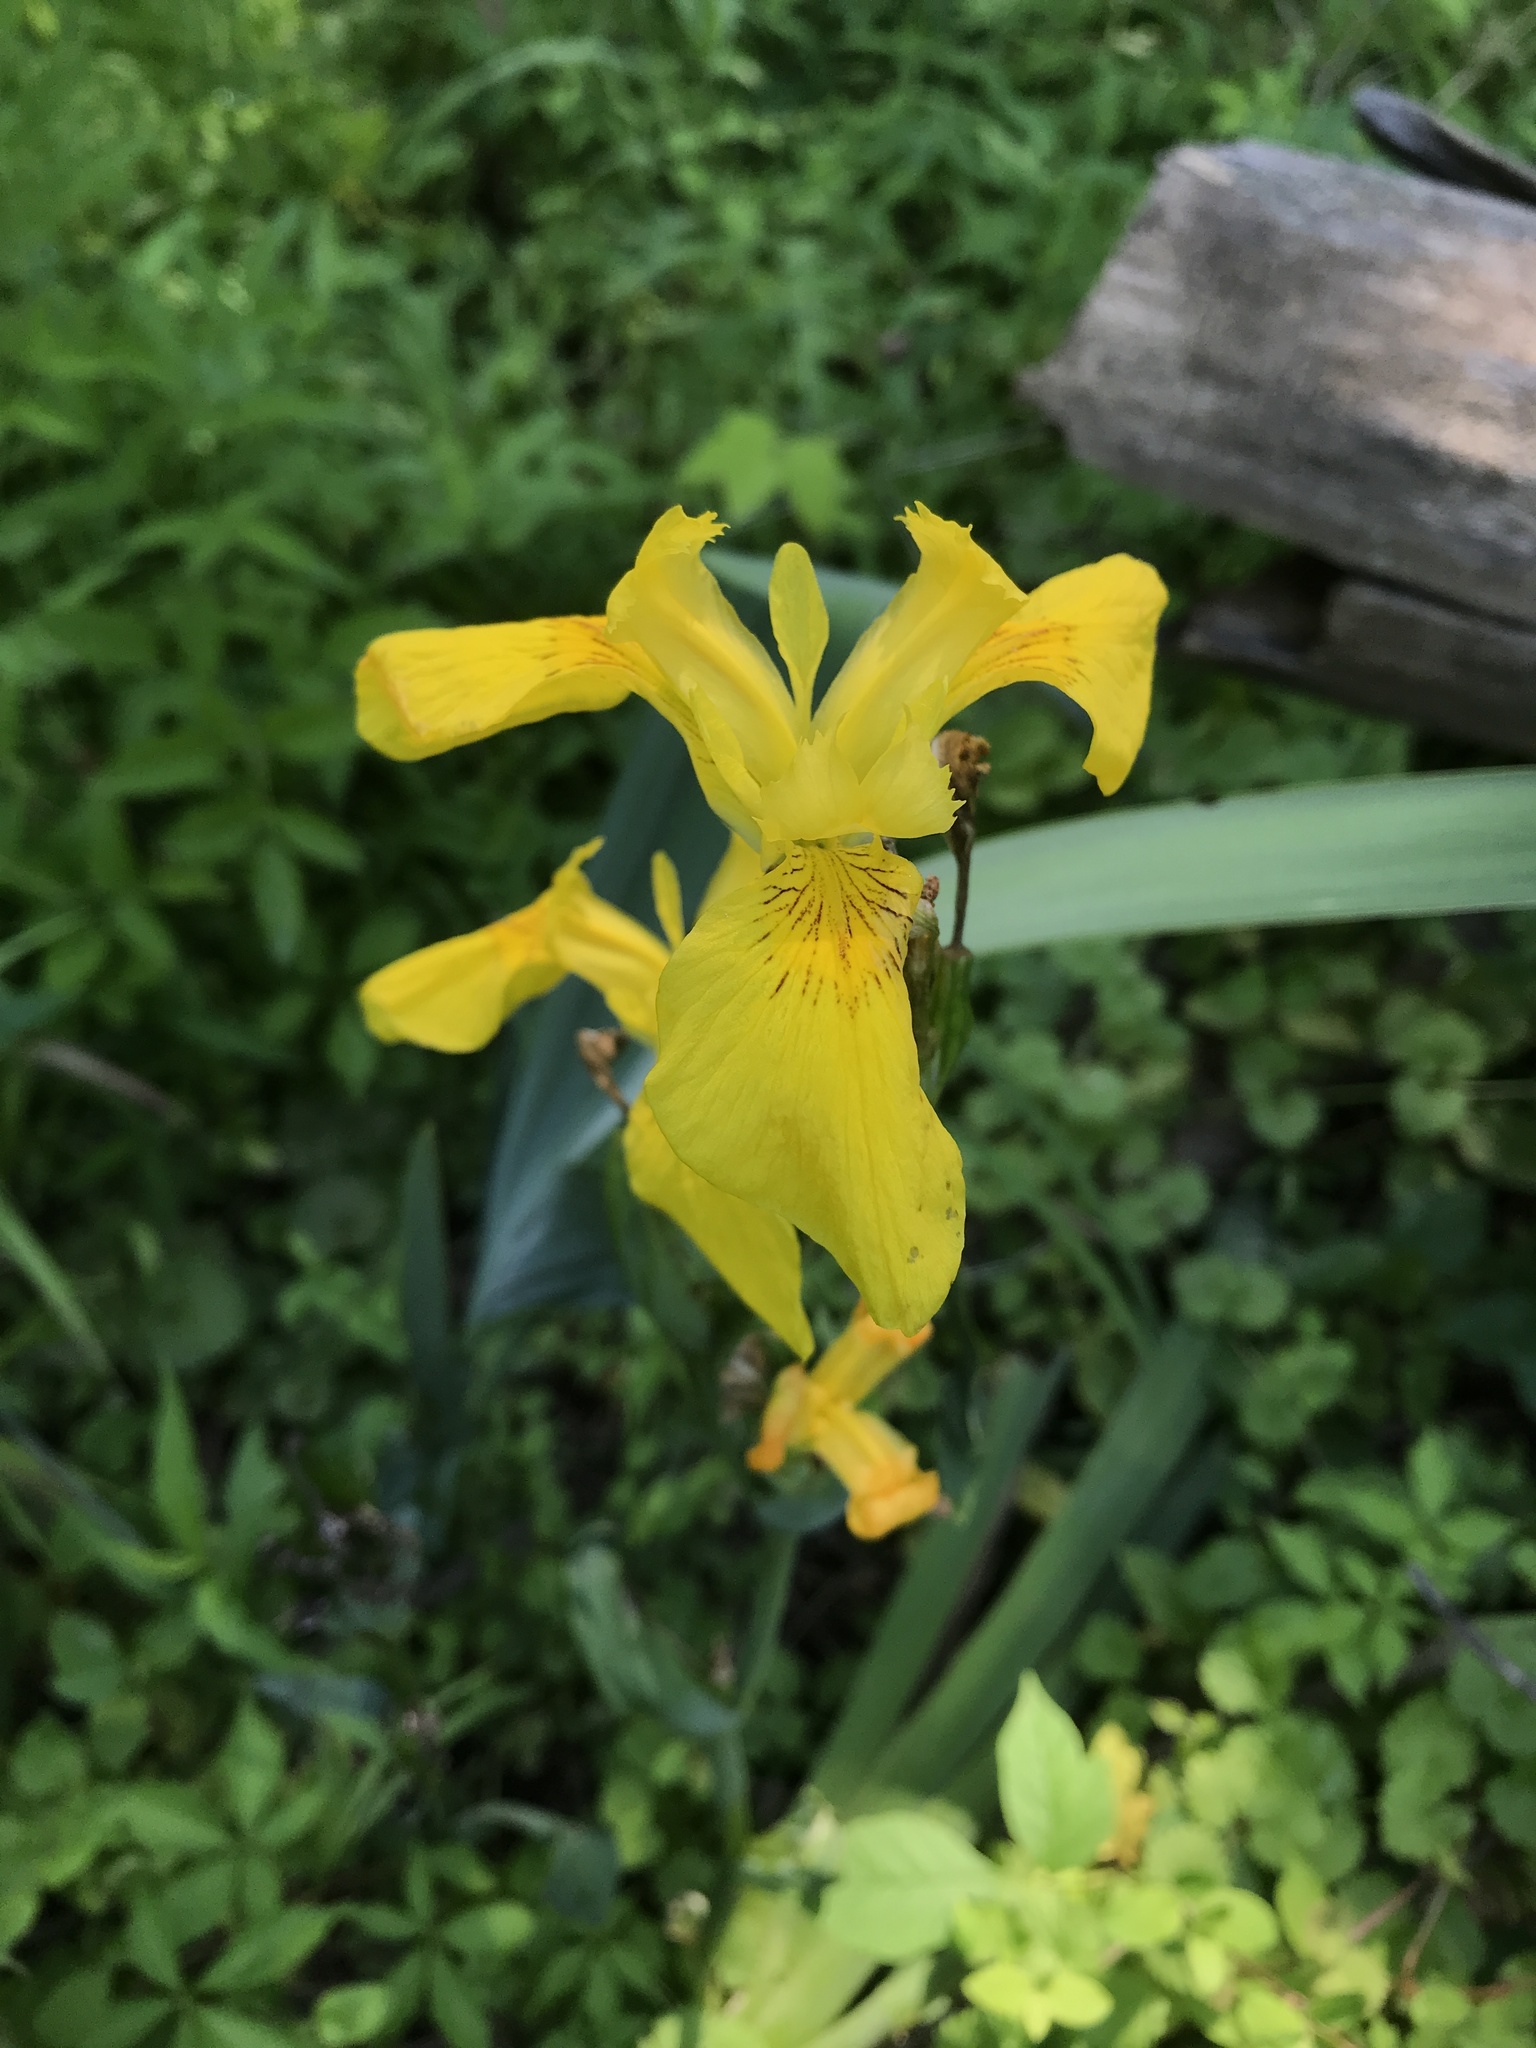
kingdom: Plantae
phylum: Tracheophyta
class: Liliopsida
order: Asparagales
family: Iridaceae
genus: Iris
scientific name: Iris pseudacorus
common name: Yellow flag
